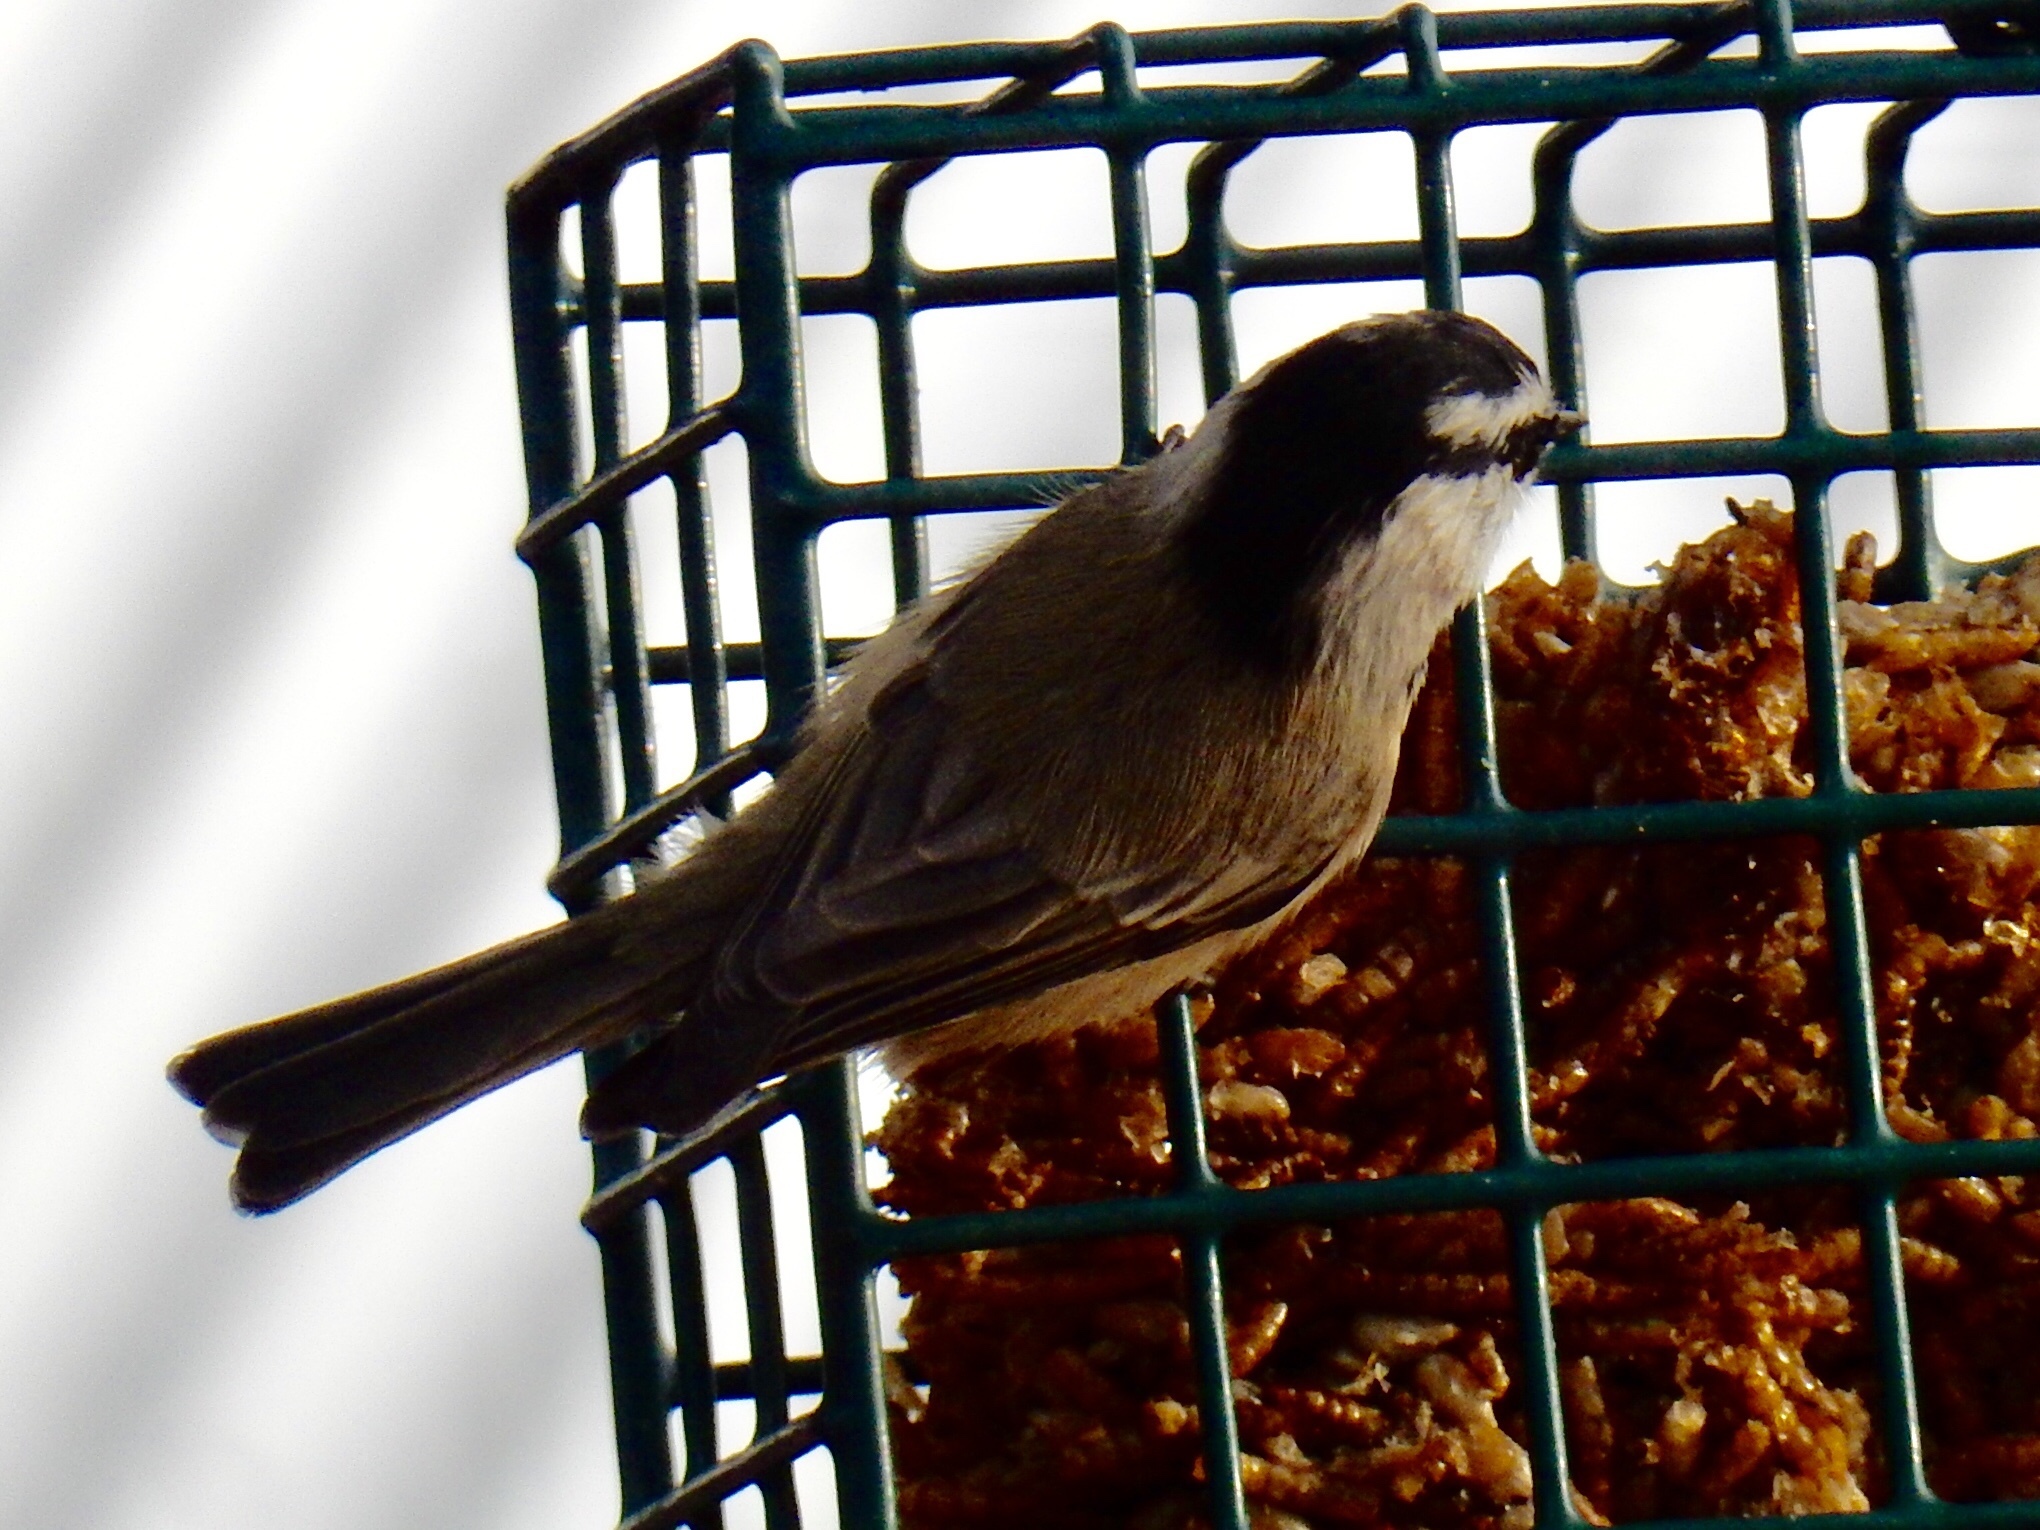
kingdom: Animalia
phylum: Chordata
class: Aves
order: Passeriformes
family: Paridae
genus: Poecile
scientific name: Poecile gambeli
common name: Mountain chickadee
